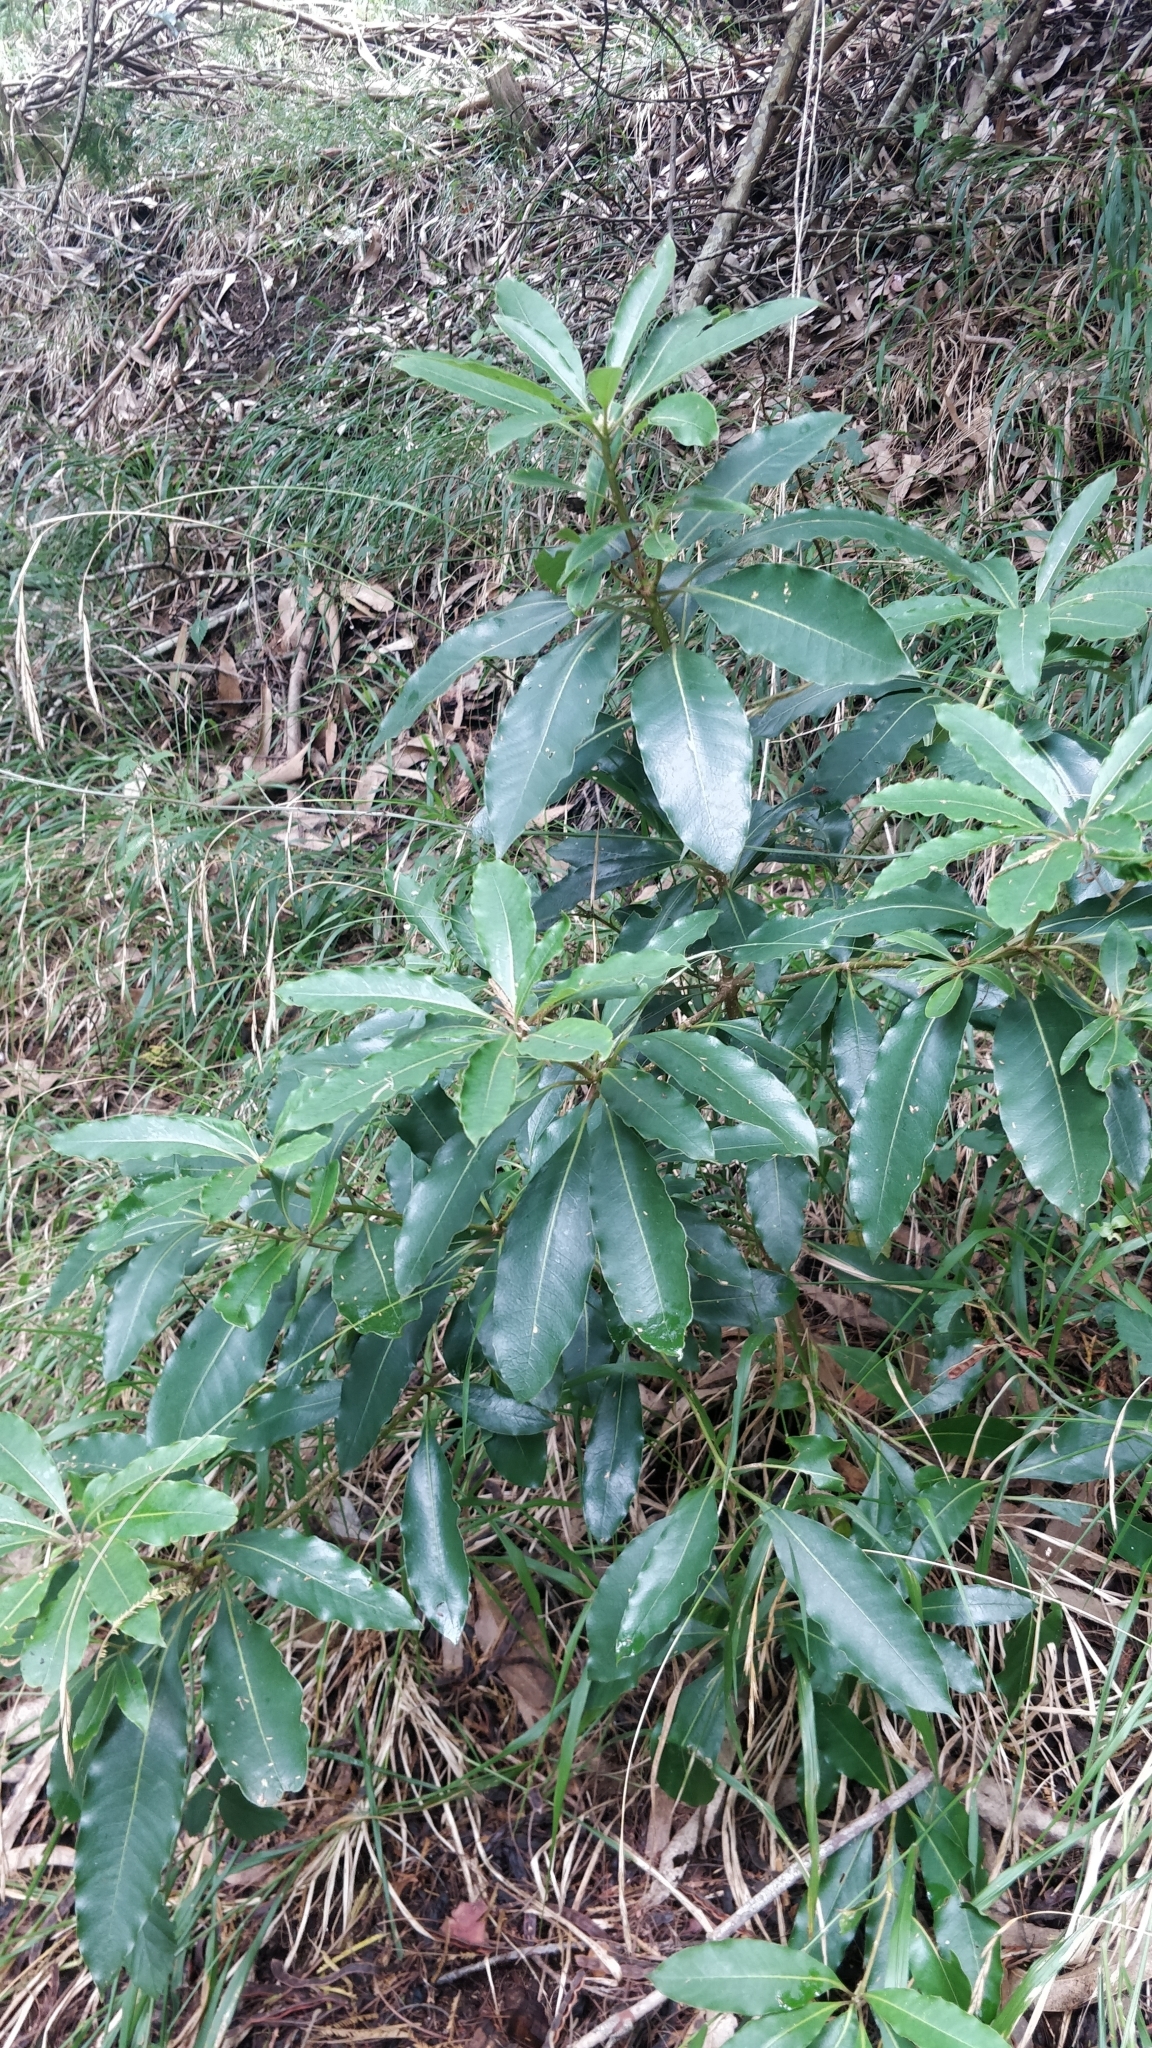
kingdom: Plantae
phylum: Tracheophyta
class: Magnoliopsida
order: Apiales
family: Pittosporaceae
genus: Pittosporum
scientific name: Pittosporum undulatum
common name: Australian cheesewood
